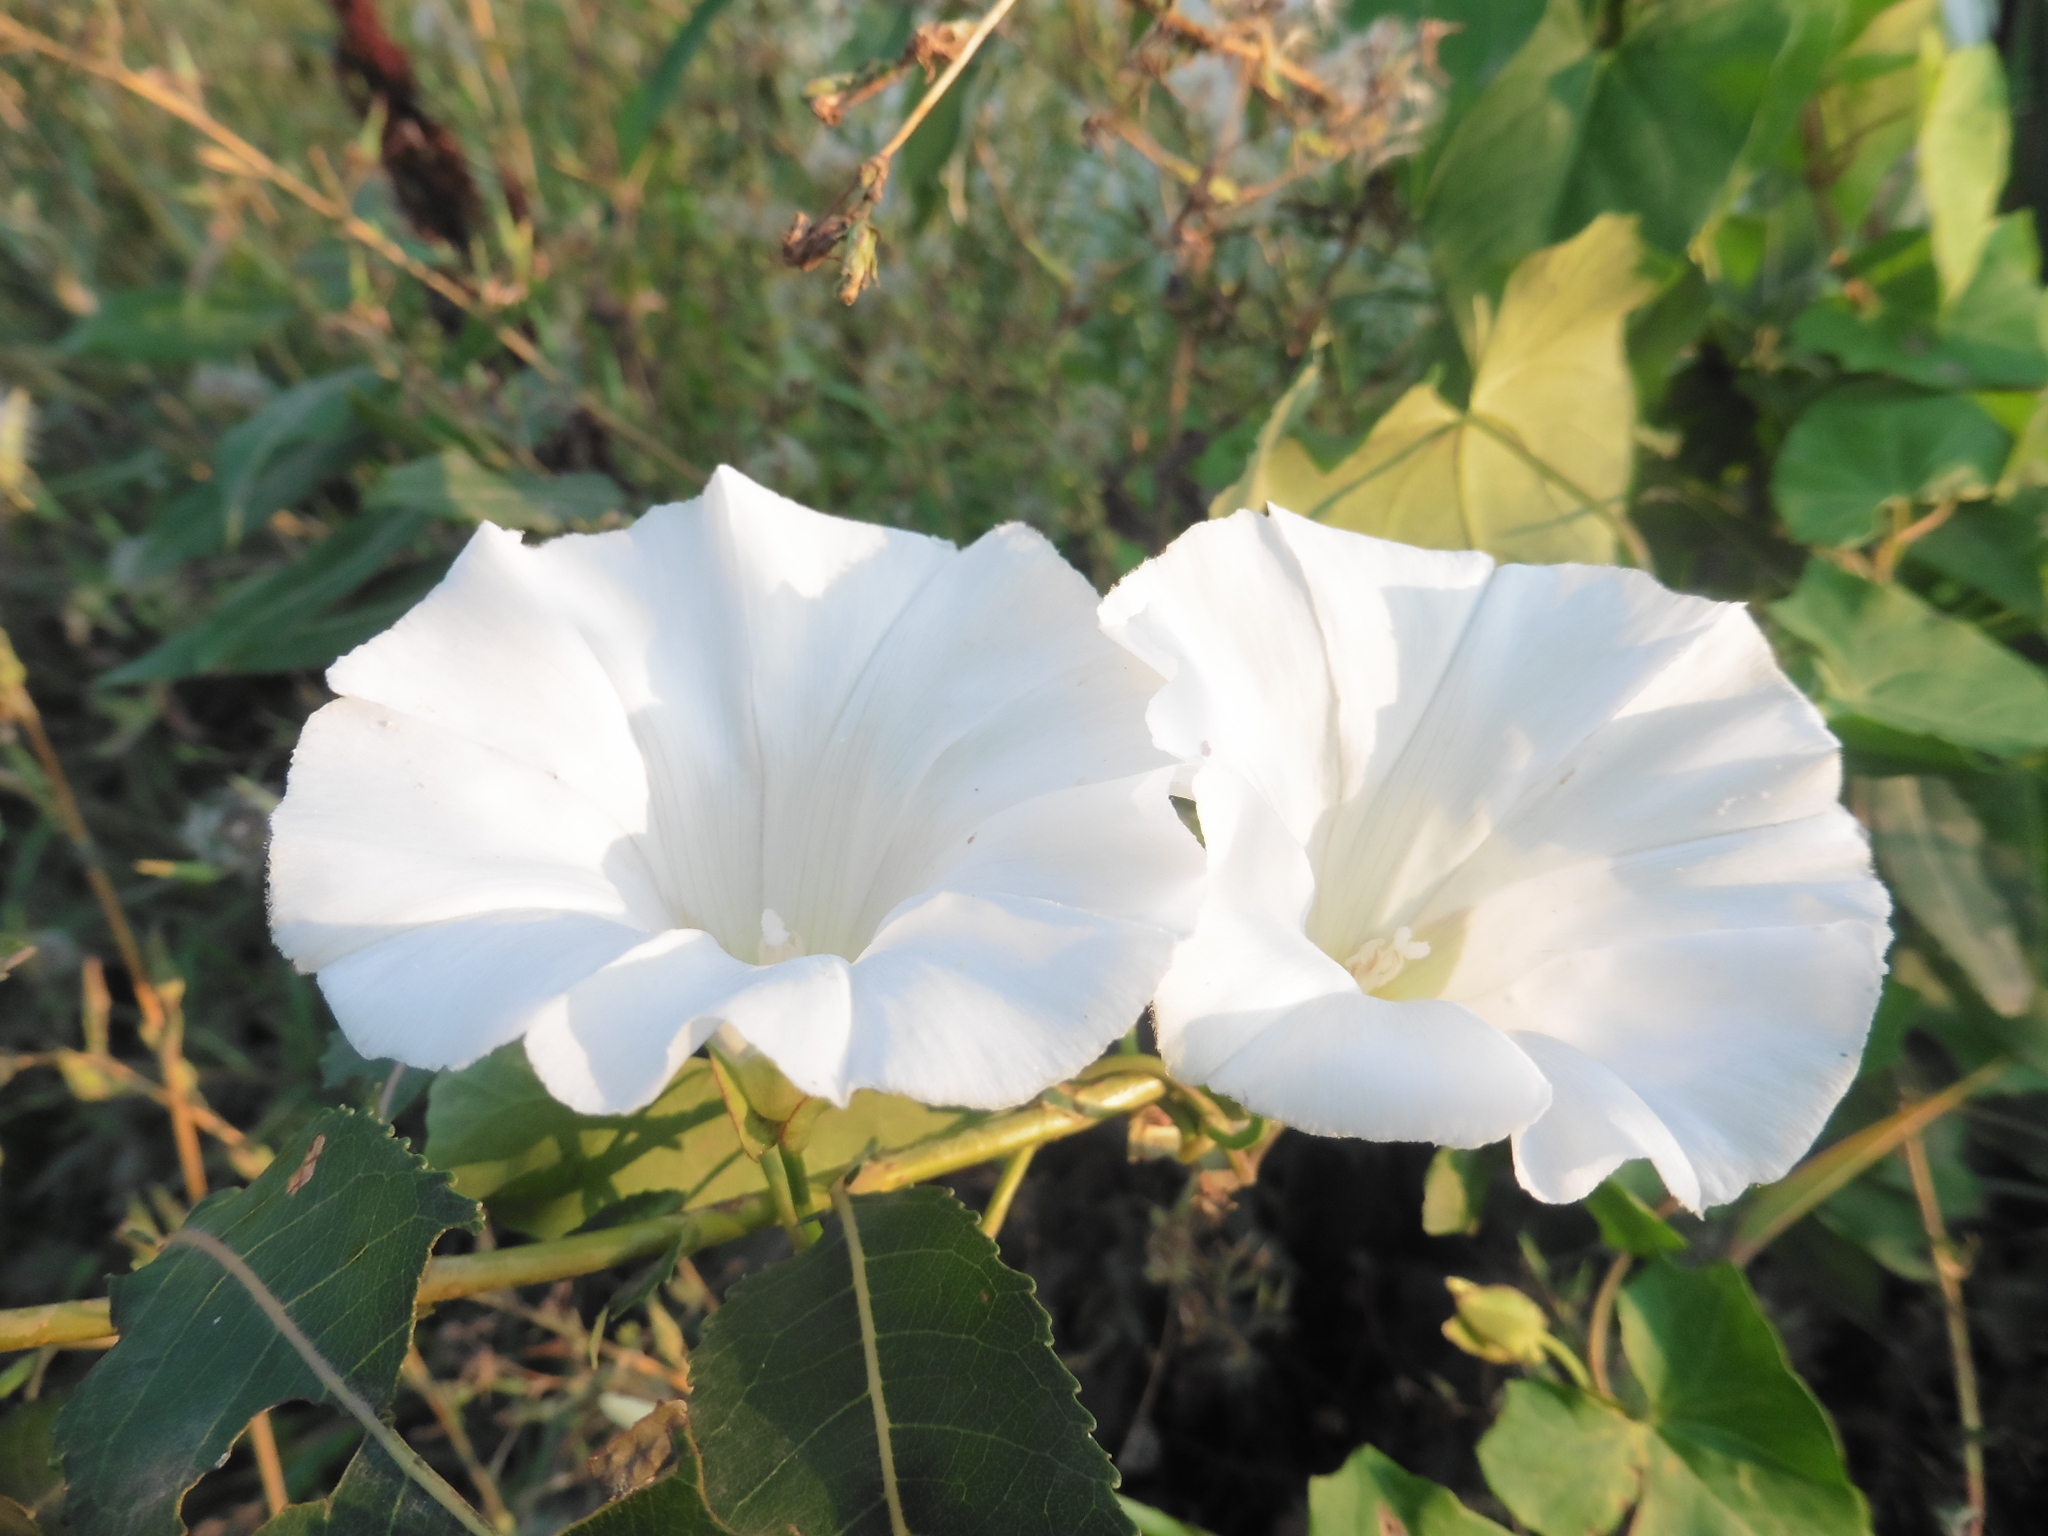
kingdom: Plantae
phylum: Tracheophyta
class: Magnoliopsida
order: Solanales
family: Convolvulaceae
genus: Calystegia
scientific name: Calystegia sepium
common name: Hedge bindweed
